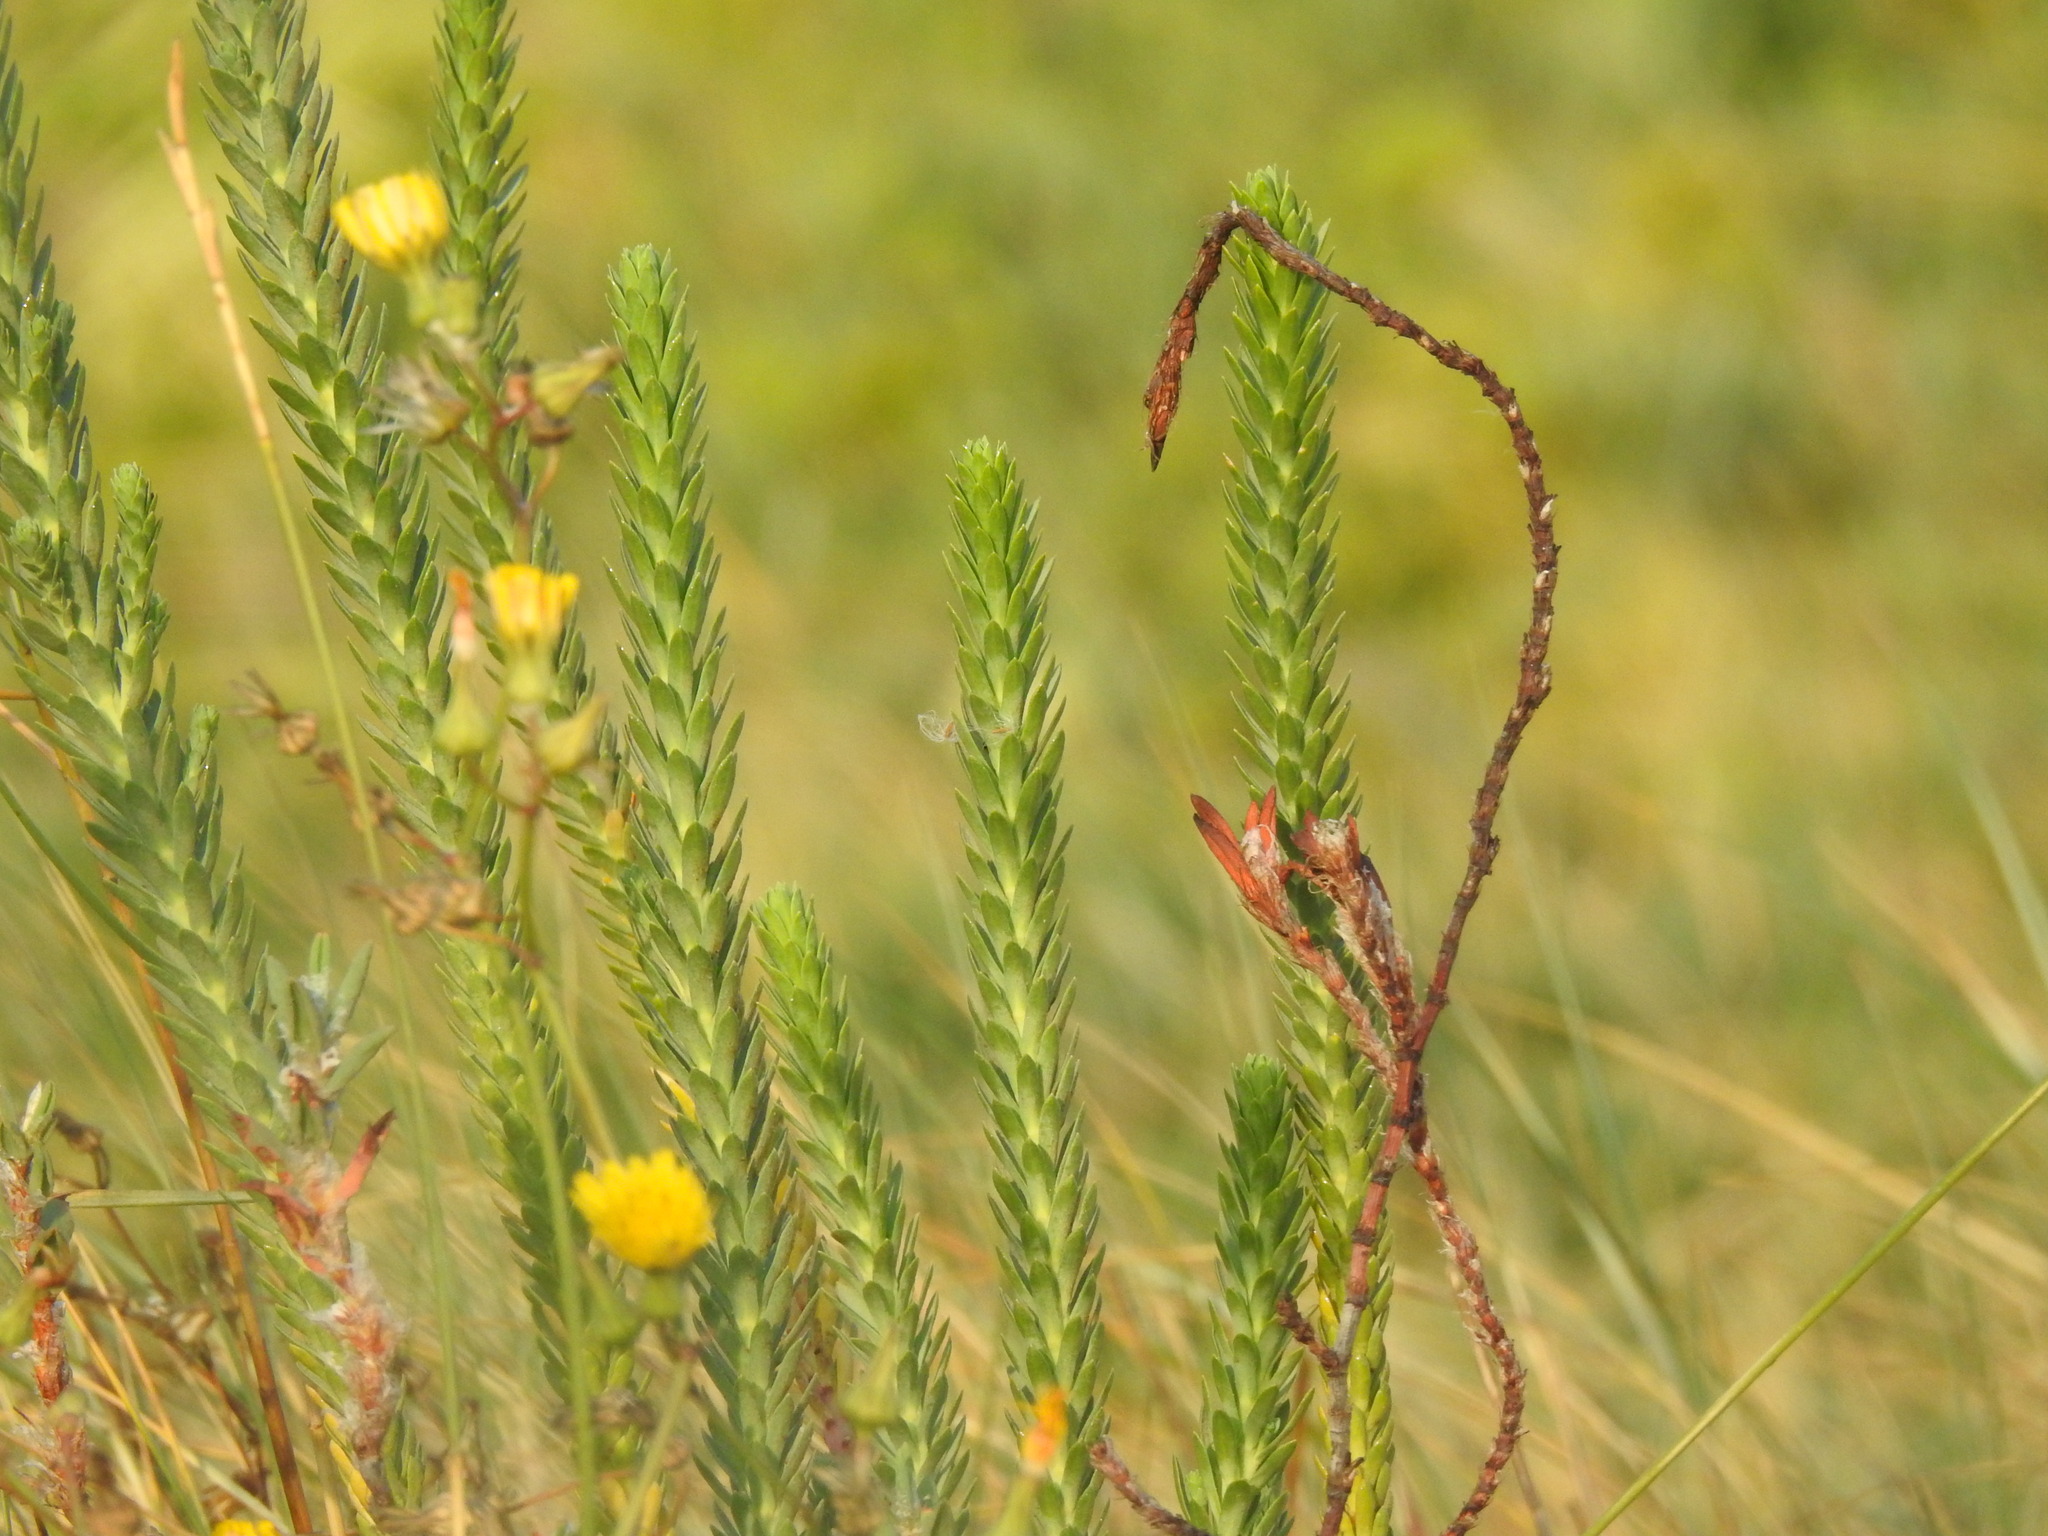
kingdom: Plantae
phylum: Tracheophyta
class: Magnoliopsida
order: Malpighiales
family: Euphorbiaceae
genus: Euphorbia
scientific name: Euphorbia paralias
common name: Sea spurge
